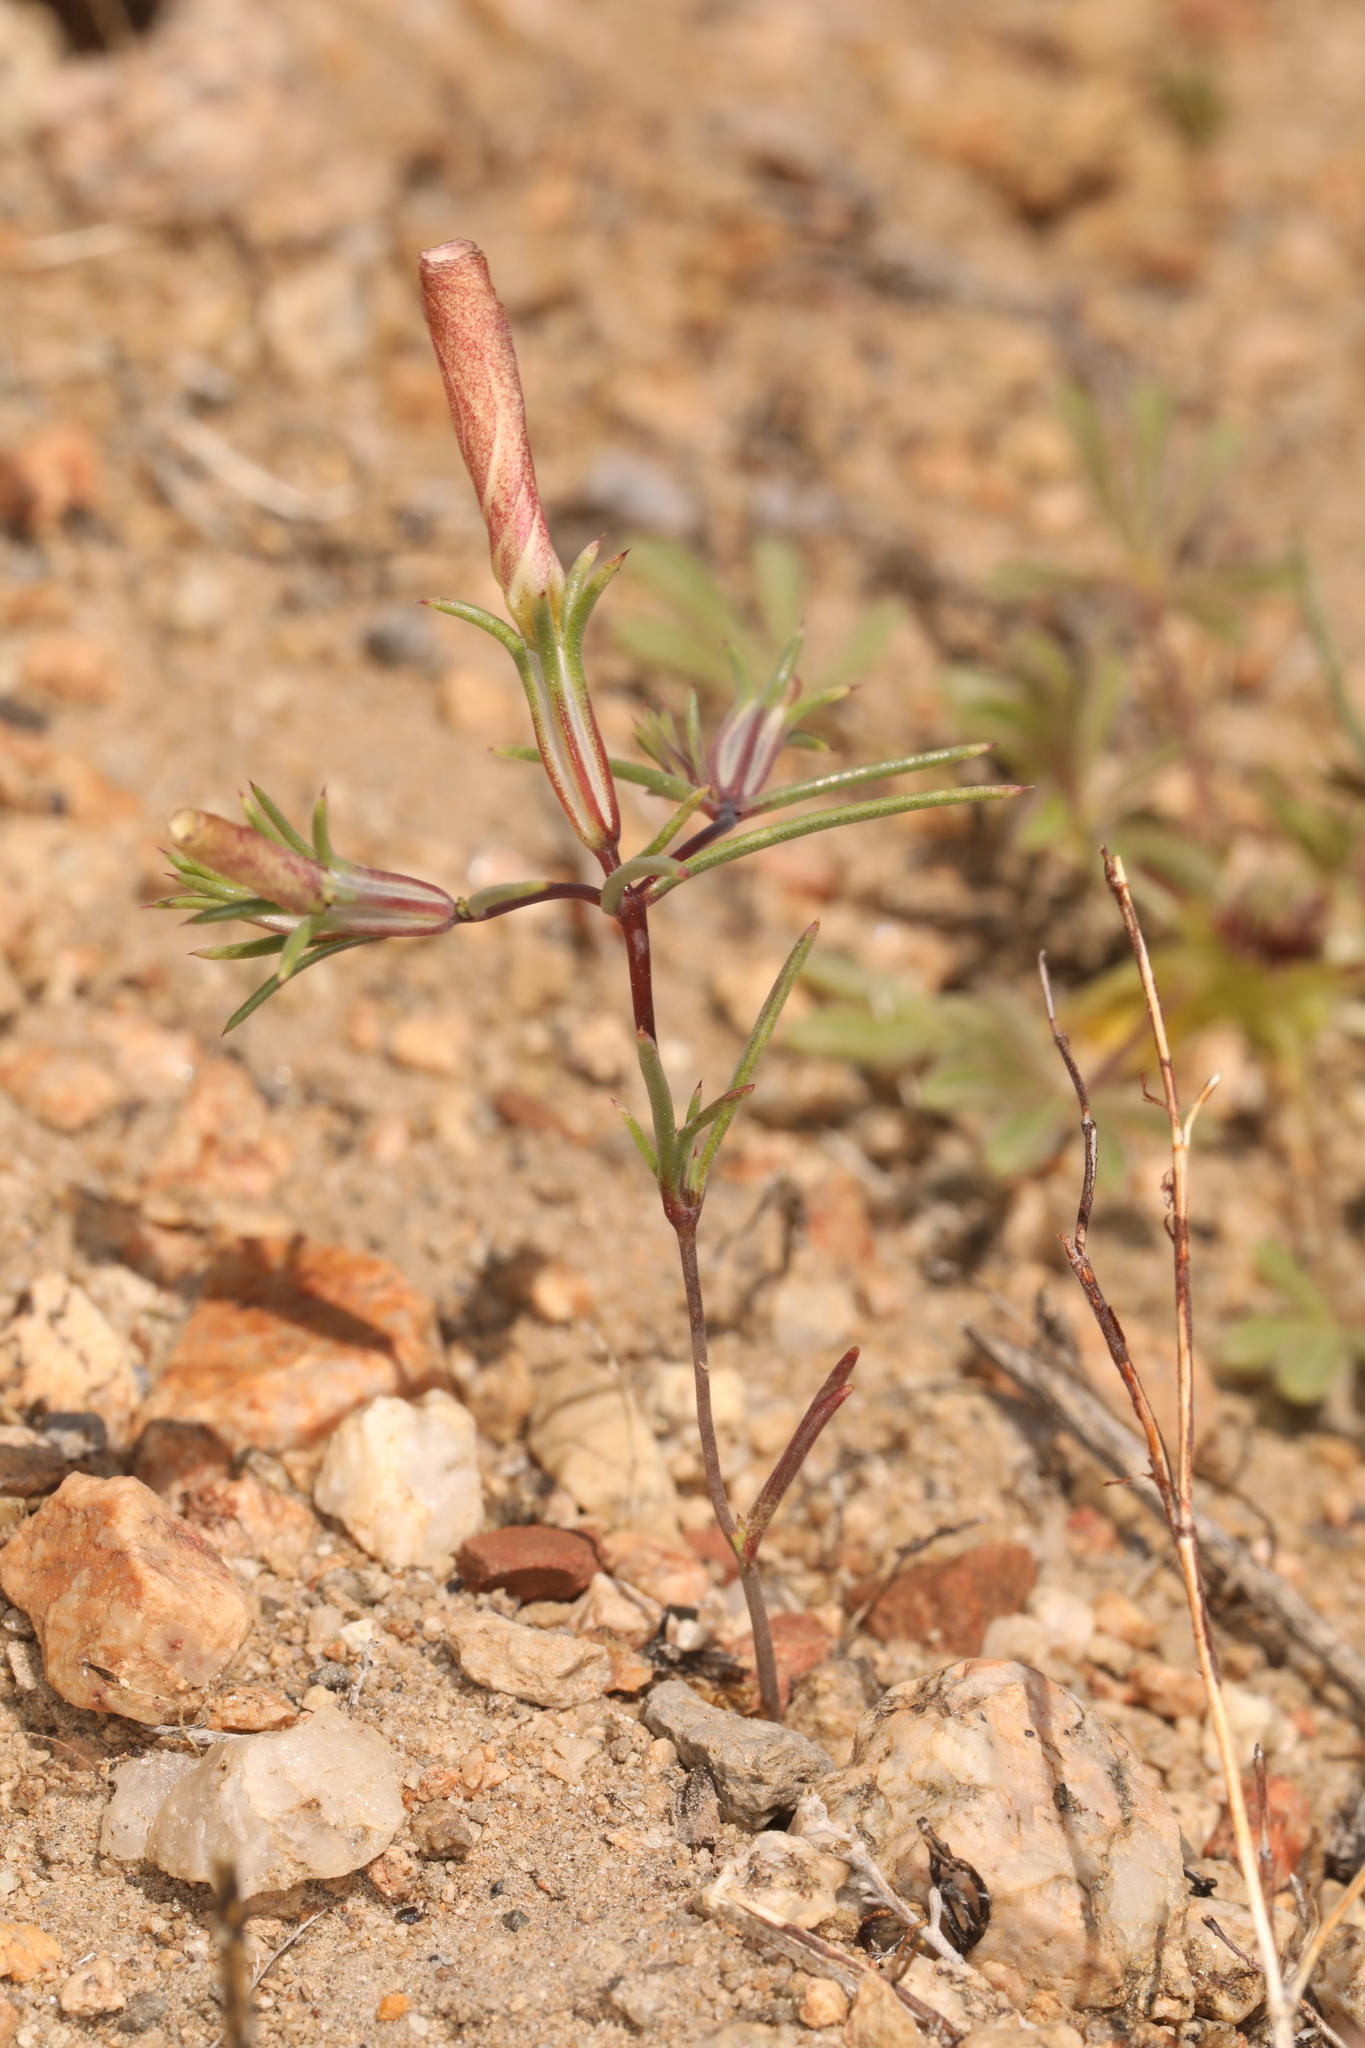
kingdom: Plantae
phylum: Tracheophyta
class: Magnoliopsida
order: Ericales
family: Polemoniaceae
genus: Linanthus
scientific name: Linanthus dichotomus
